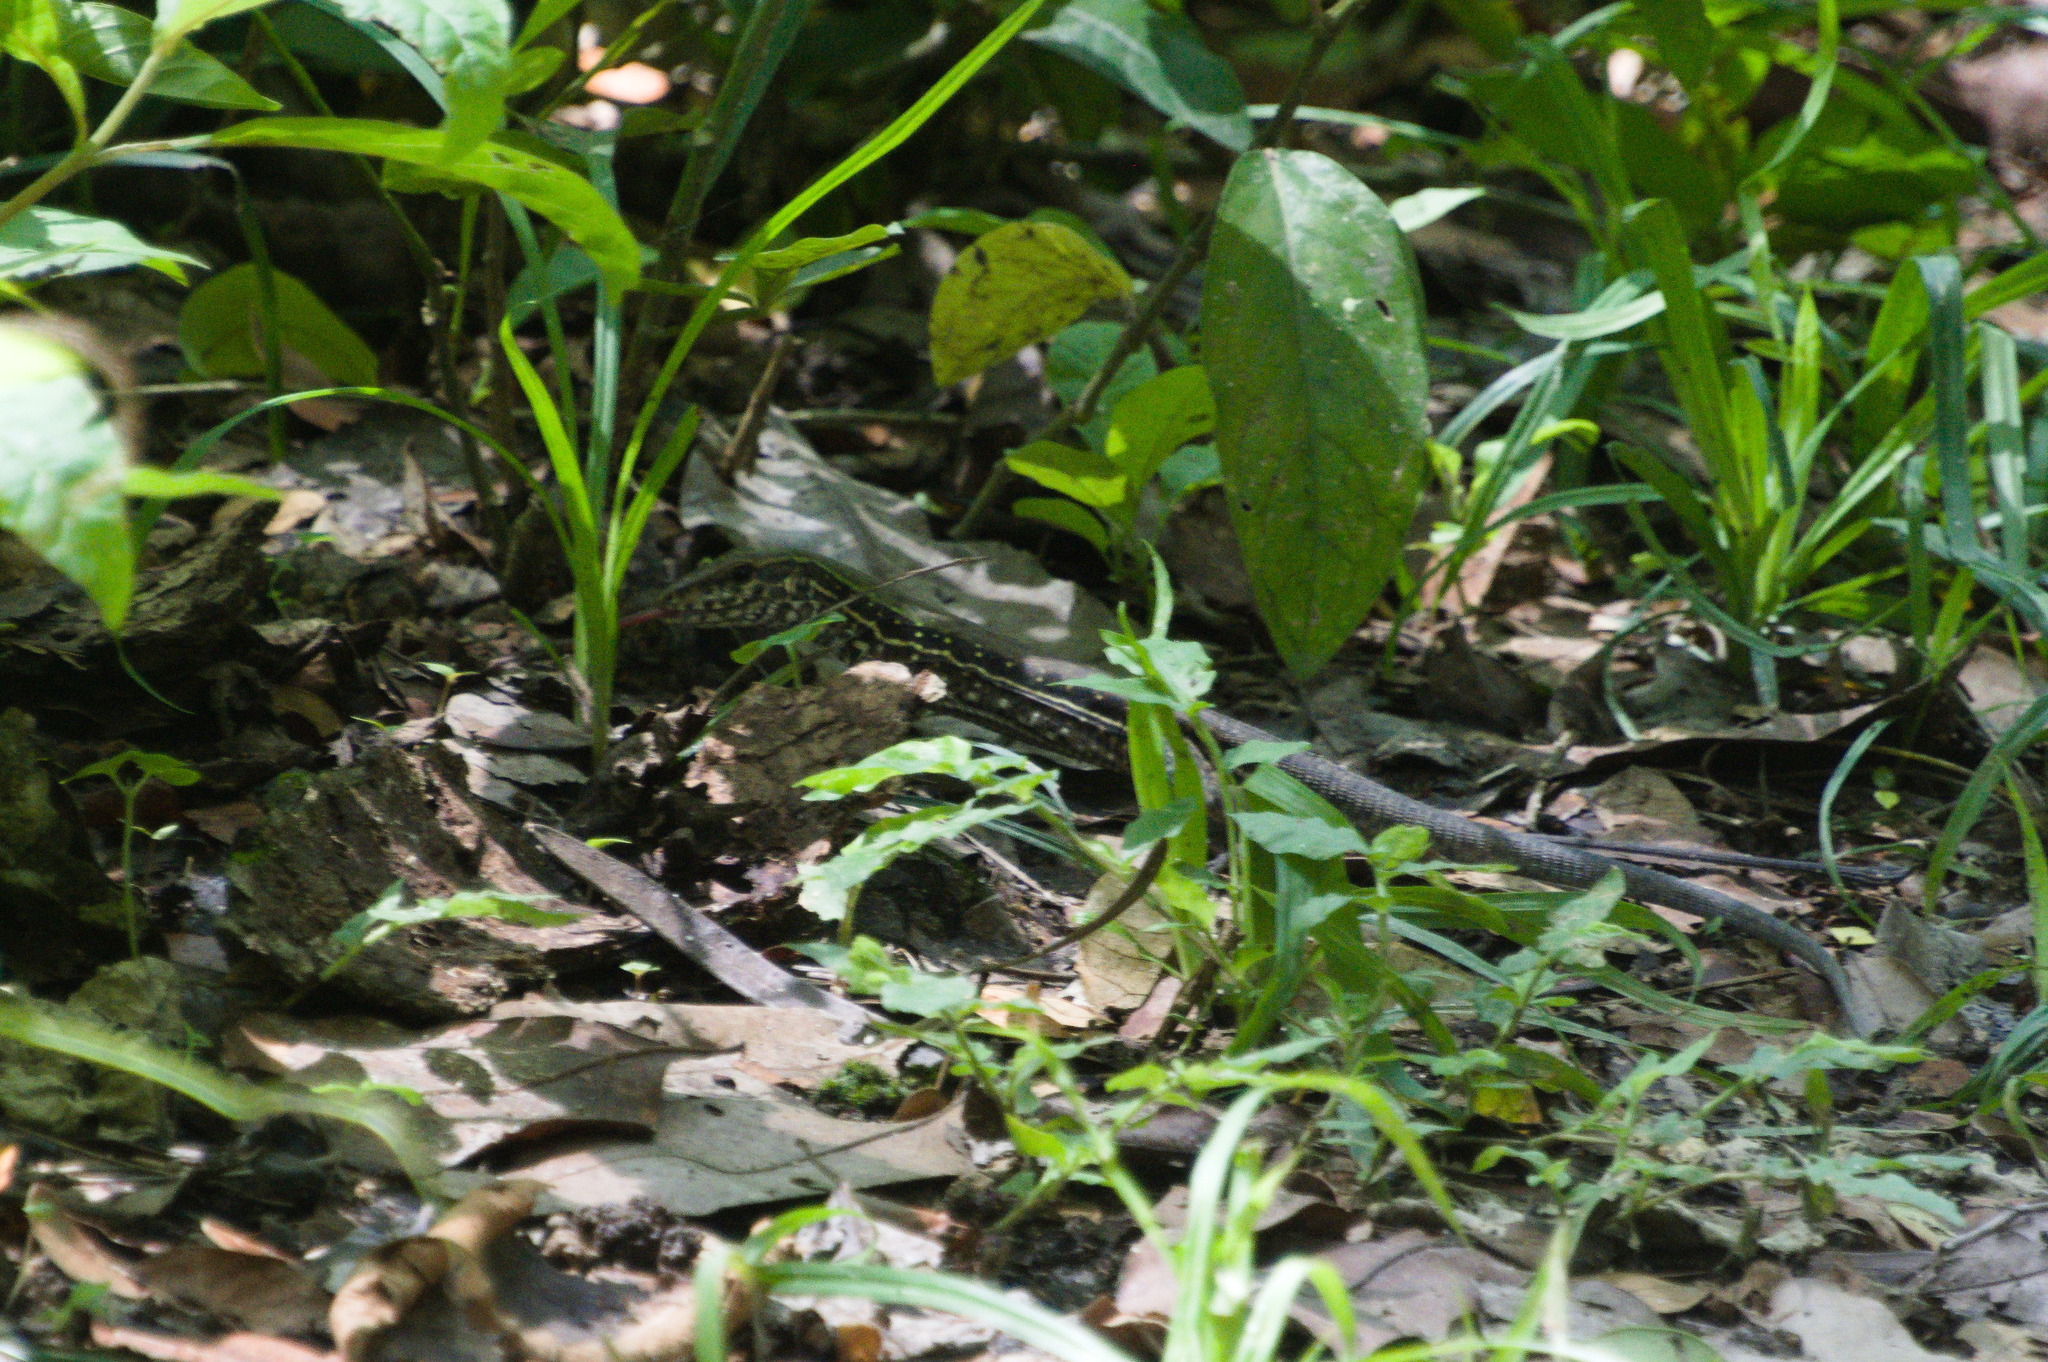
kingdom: Animalia
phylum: Chordata
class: Squamata
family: Teiidae
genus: Ameiva
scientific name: Ameiva praesignis
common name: Giant ameiva
